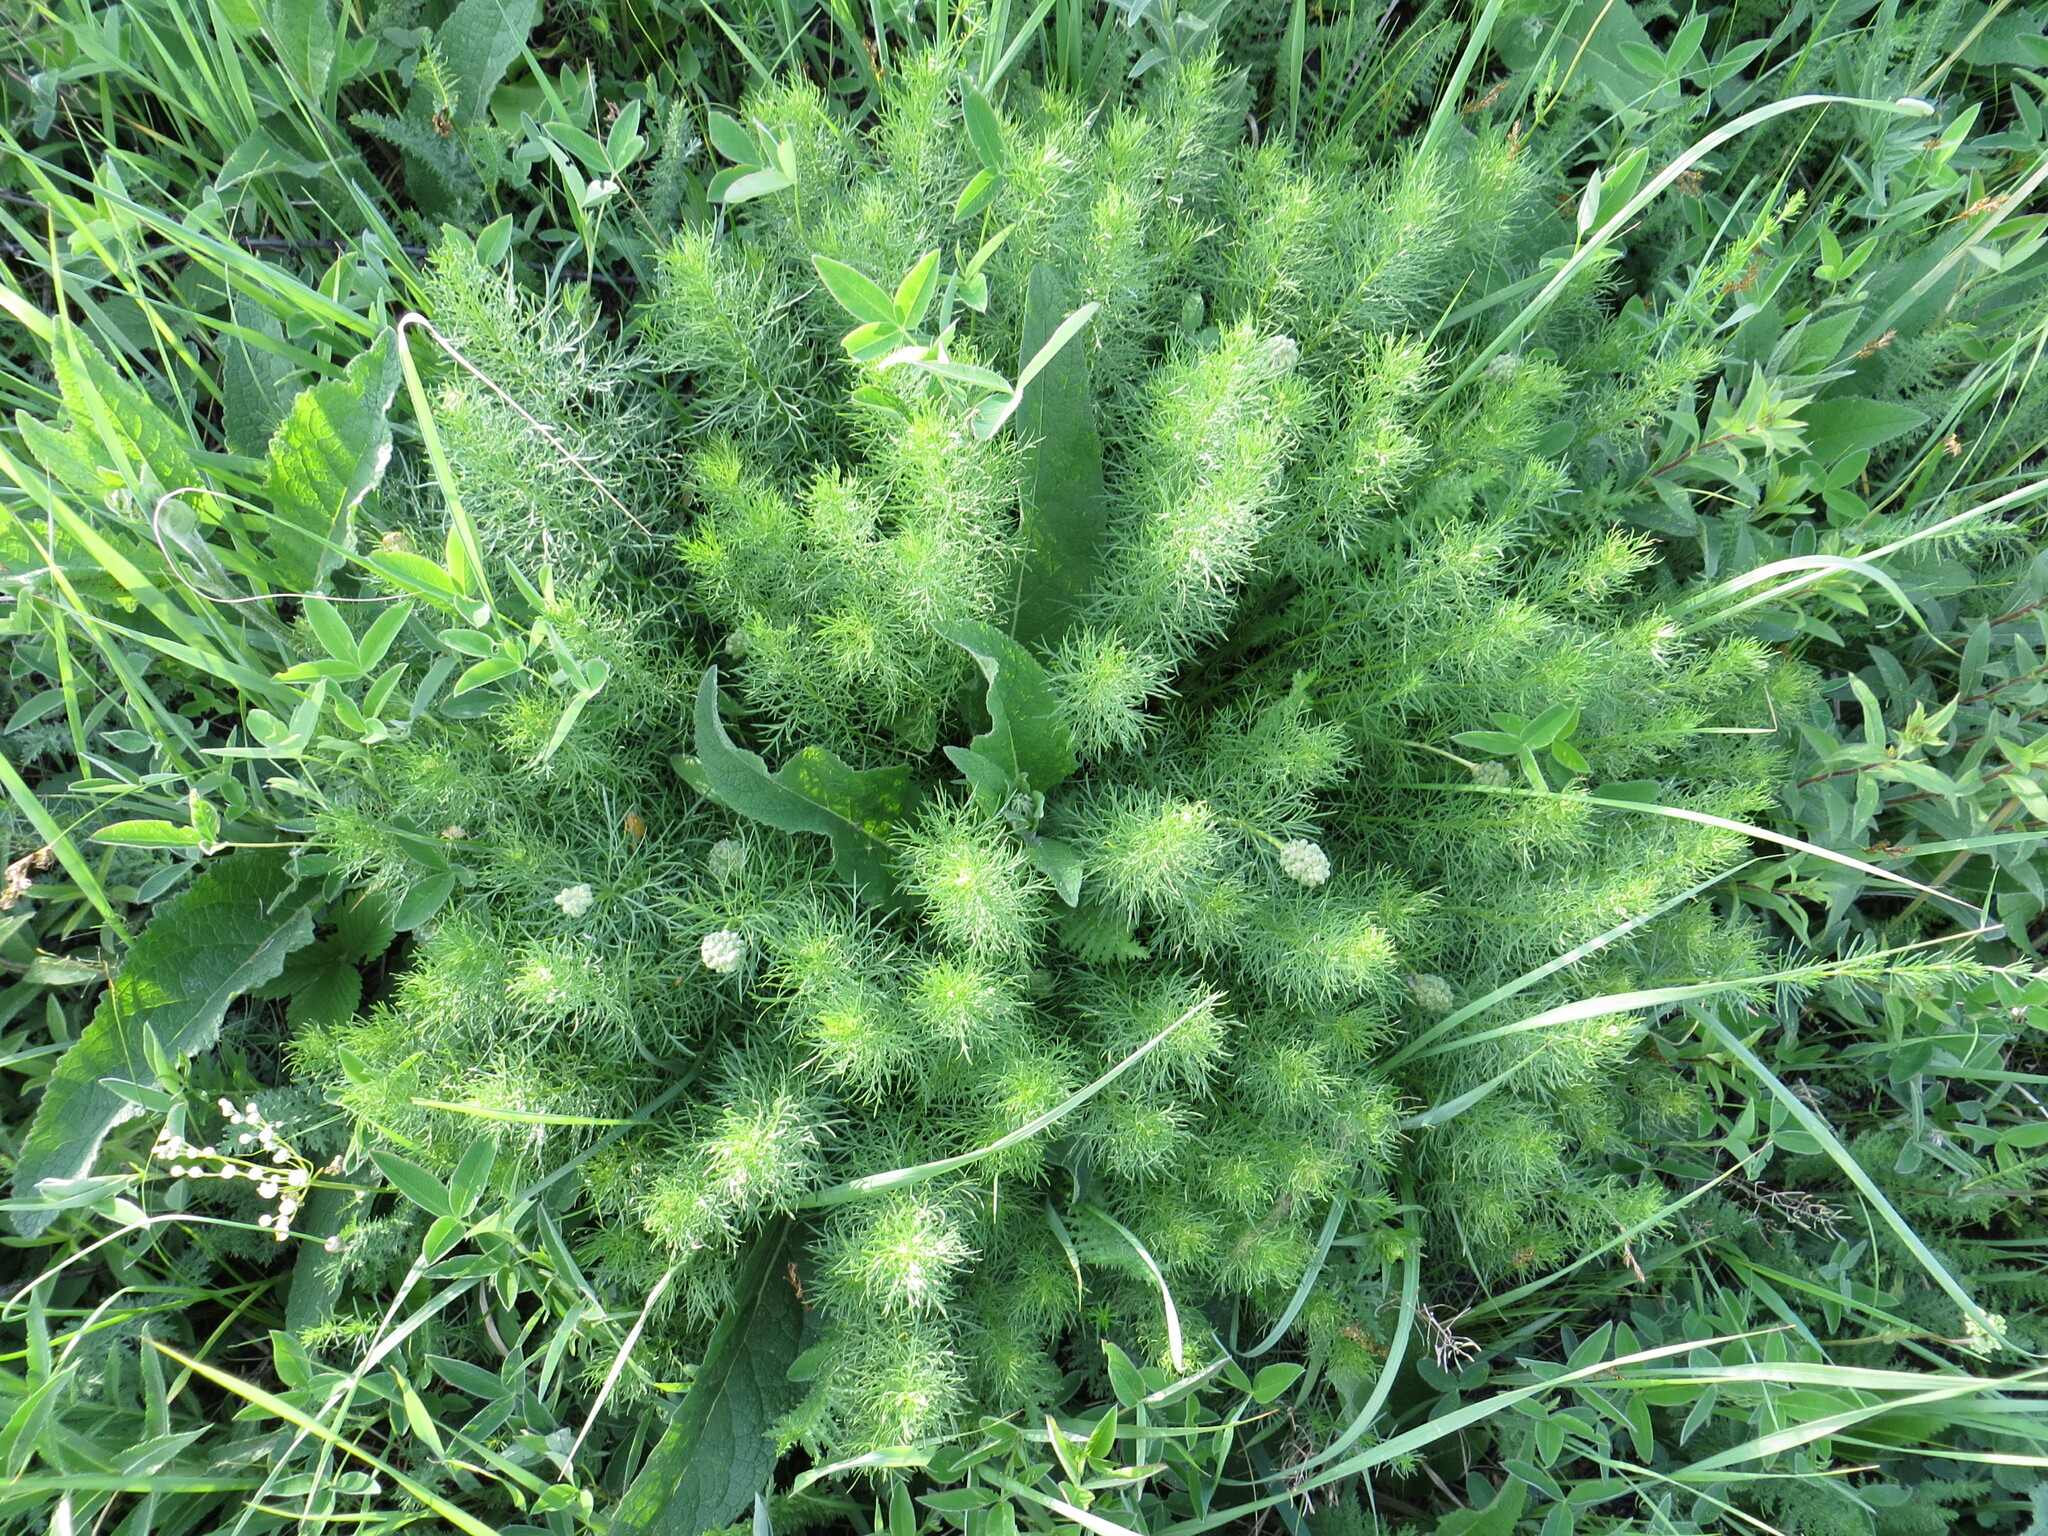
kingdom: Plantae
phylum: Tracheophyta
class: Magnoliopsida
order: Ranunculales
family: Ranunculaceae
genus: Adonis
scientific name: Adonis vernalis
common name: Yellow pheasants-eye
